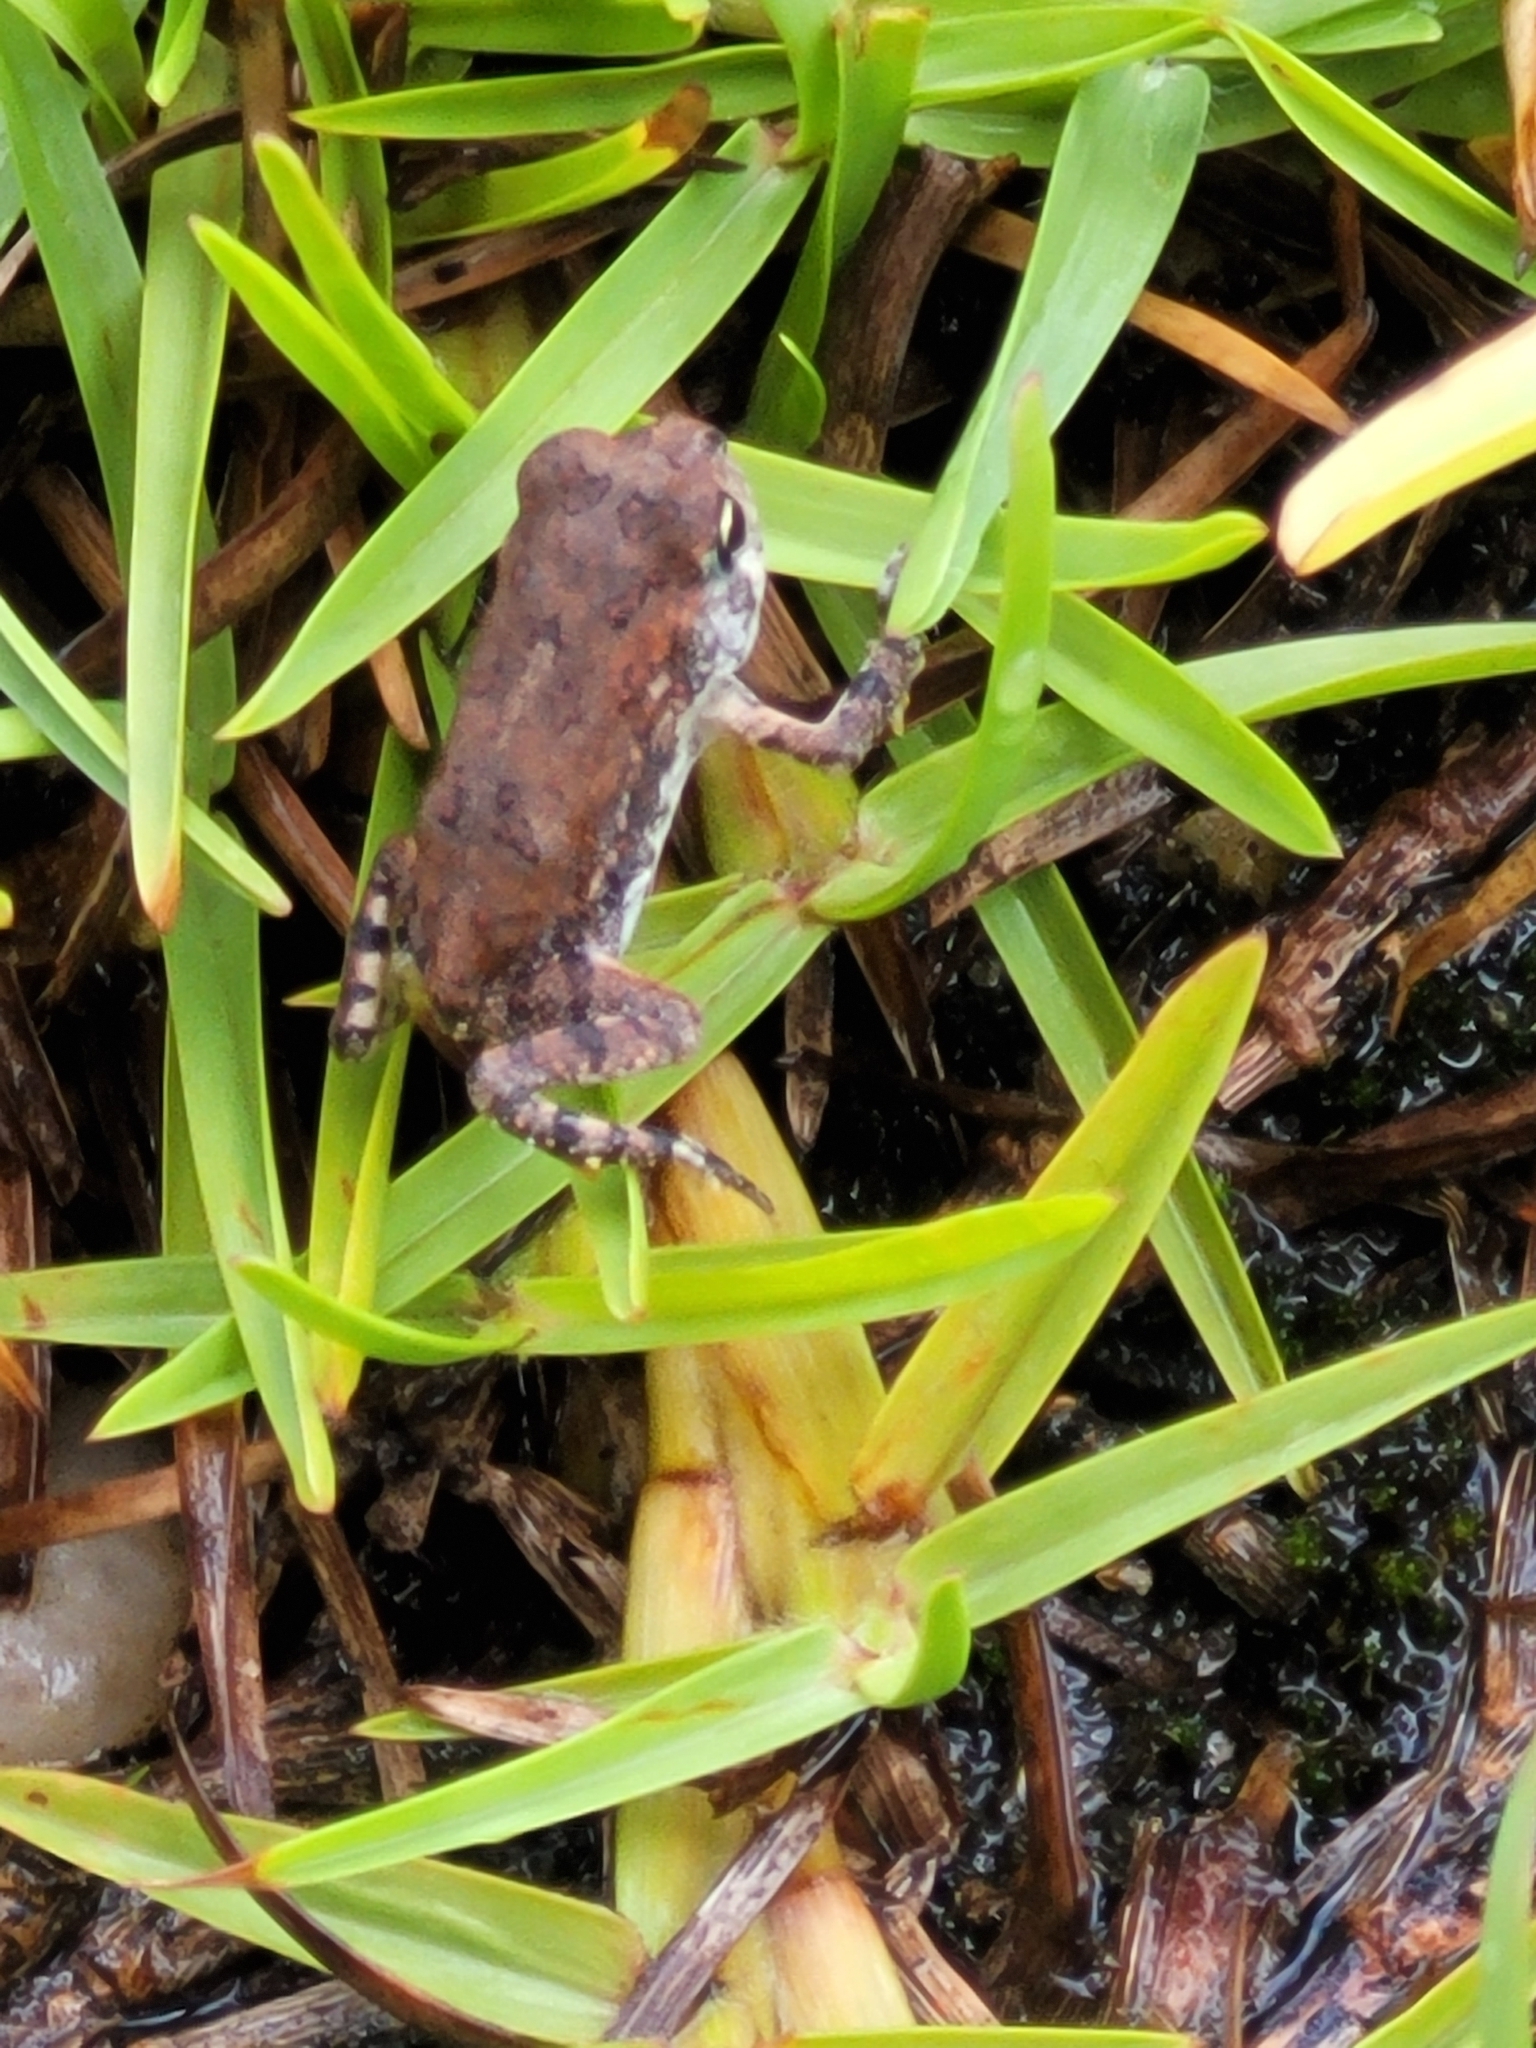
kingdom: Animalia
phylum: Chordata
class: Amphibia
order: Anura
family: Bufonidae
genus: Anaxyrus
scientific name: Anaxyrus terrestris
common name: Southern toad
